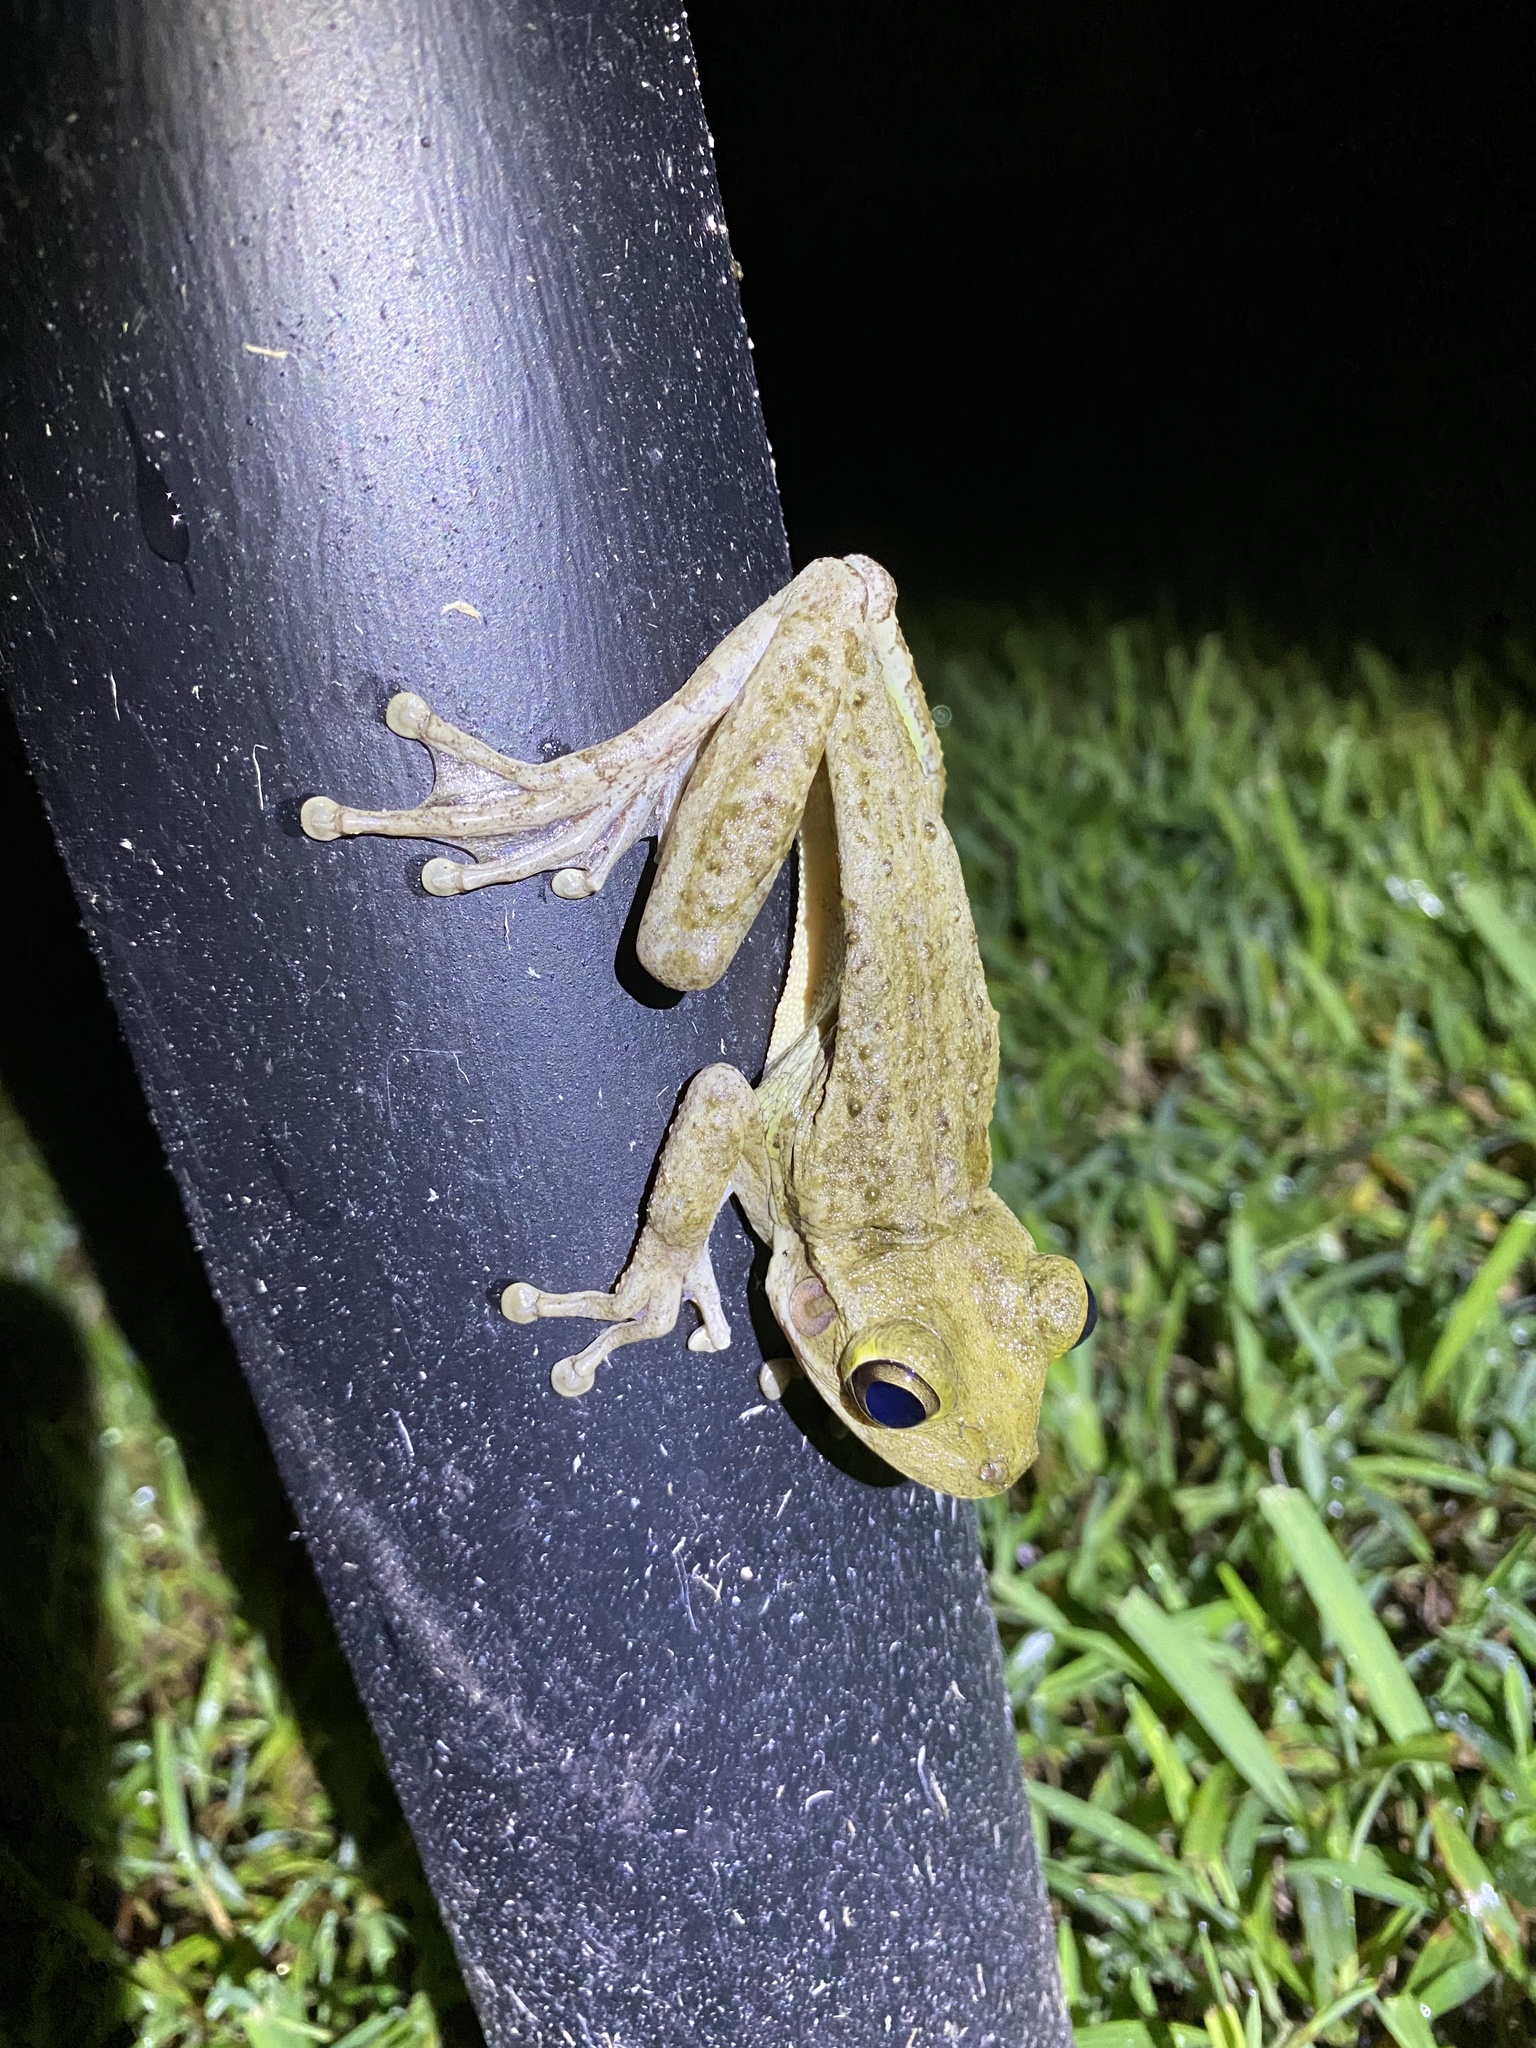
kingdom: Animalia
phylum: Chordata
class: Amphibia
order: Anura
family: Hylidae
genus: Osteopilus
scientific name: Osteopilus septentrionalis
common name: Cuban treefrog
